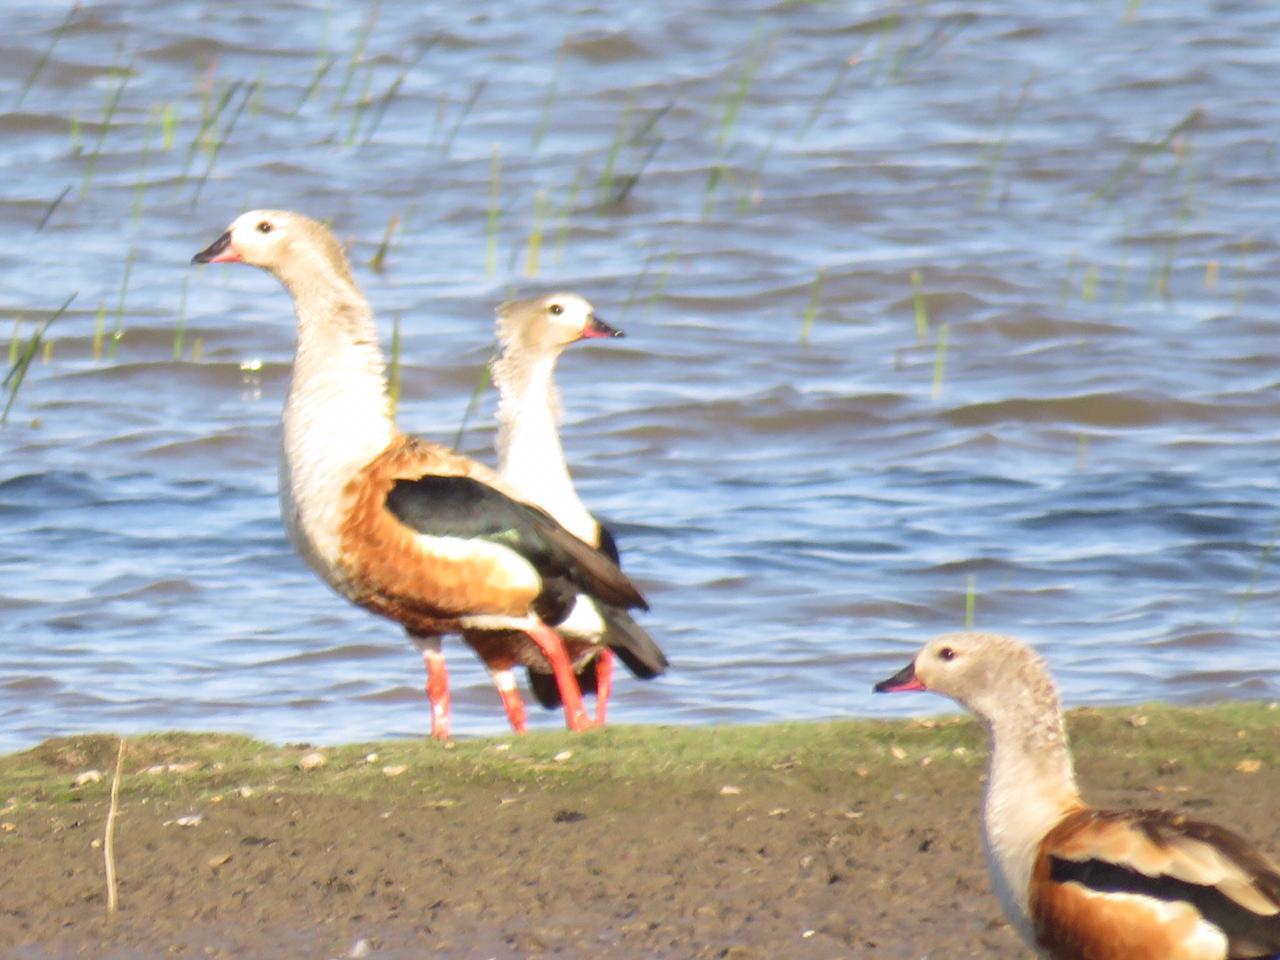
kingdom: Animalia
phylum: Chordata
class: Aves
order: Anseriformes
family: Anatidae
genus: Oressochen
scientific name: Oressochen jubatus
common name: Orinoco goose
